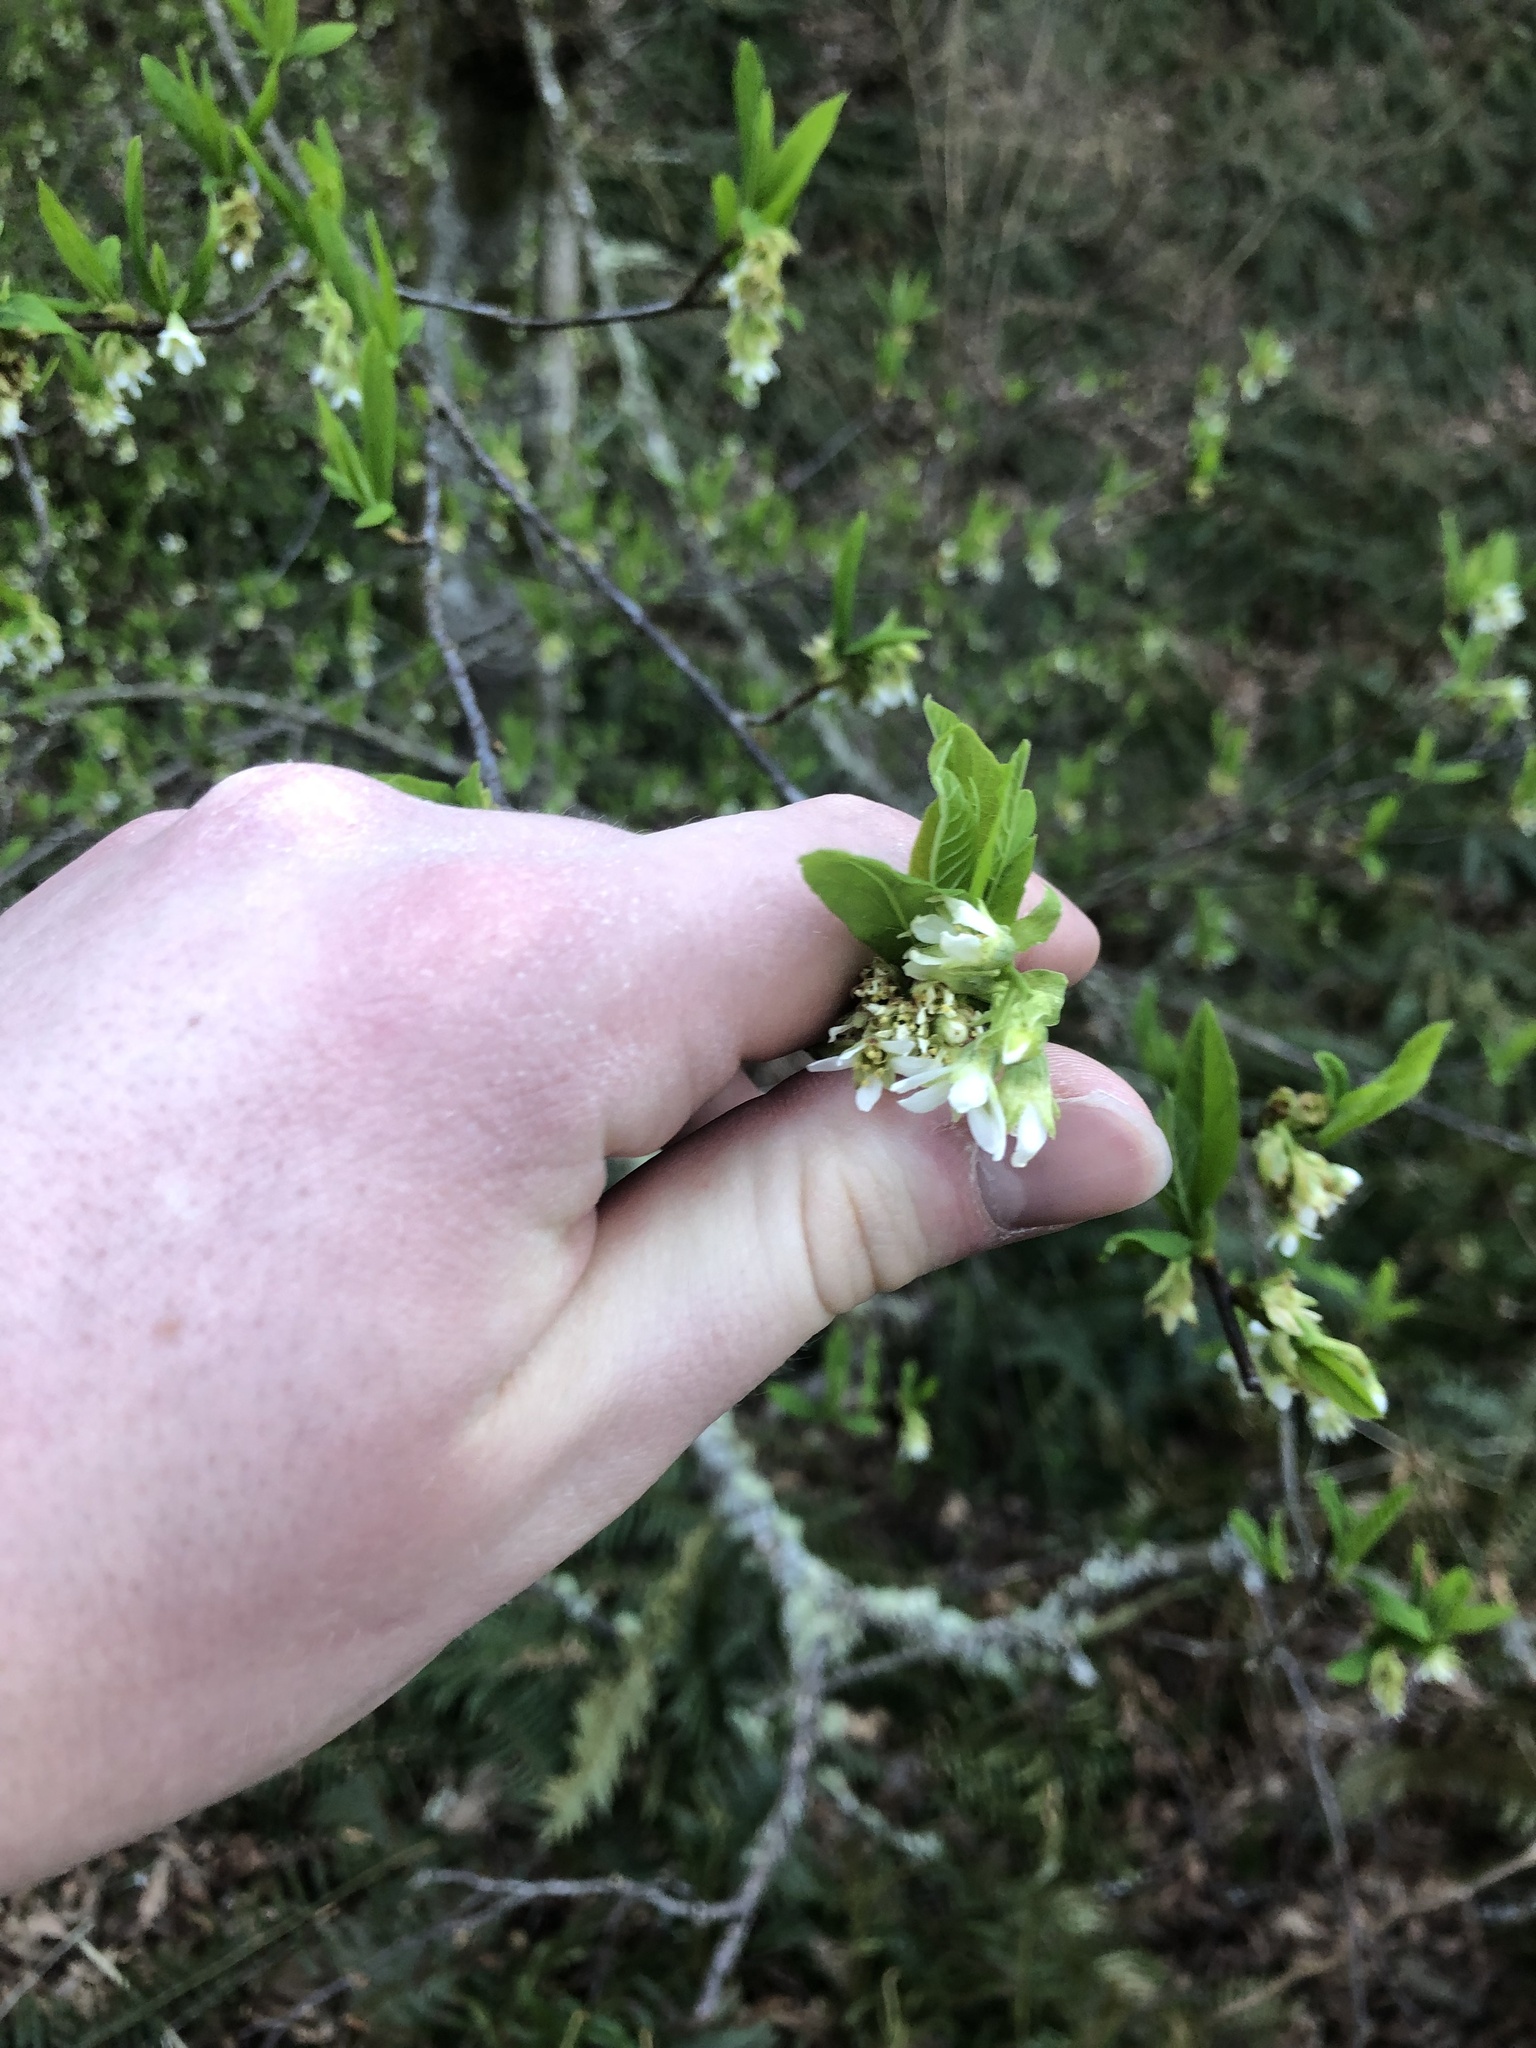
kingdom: Plantae
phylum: Tracheophyta
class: Magnoliopsida
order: Rosales
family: Rosaceae
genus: Oemleria
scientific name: Oemleria cerasiformis
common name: Osoberry
